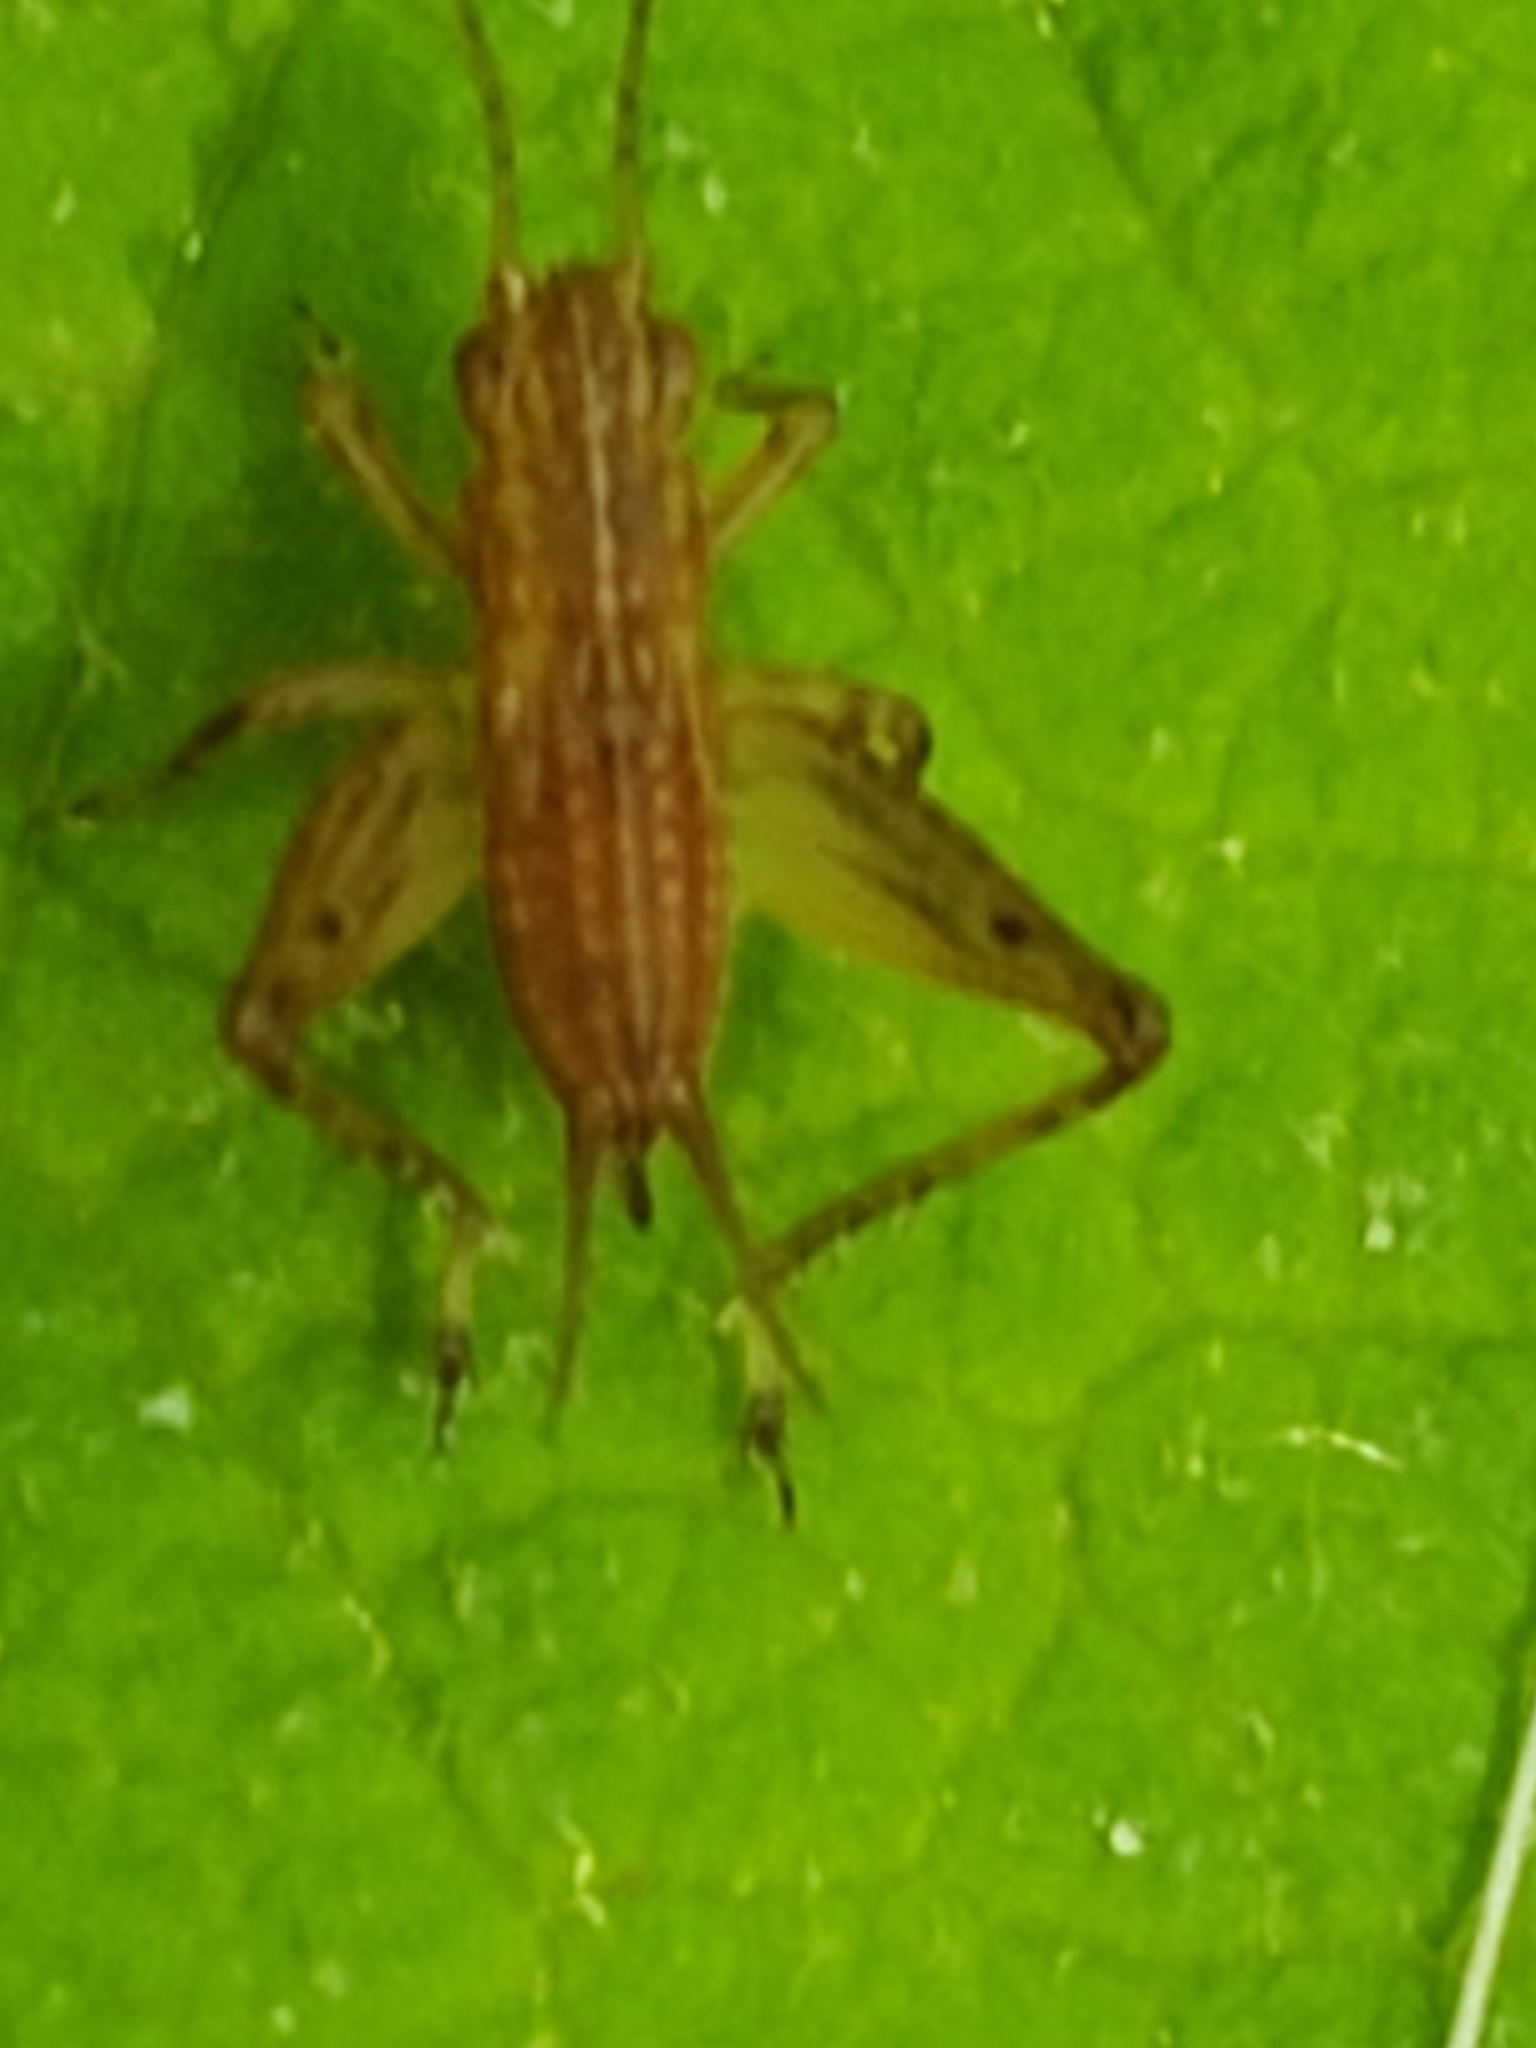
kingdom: Animalia
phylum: Arthropoda
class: Insecta
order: Orthoptera
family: Trigonidiidae
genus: Falcicula
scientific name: Falcicula hebardi
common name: Hebard's bush cricket
